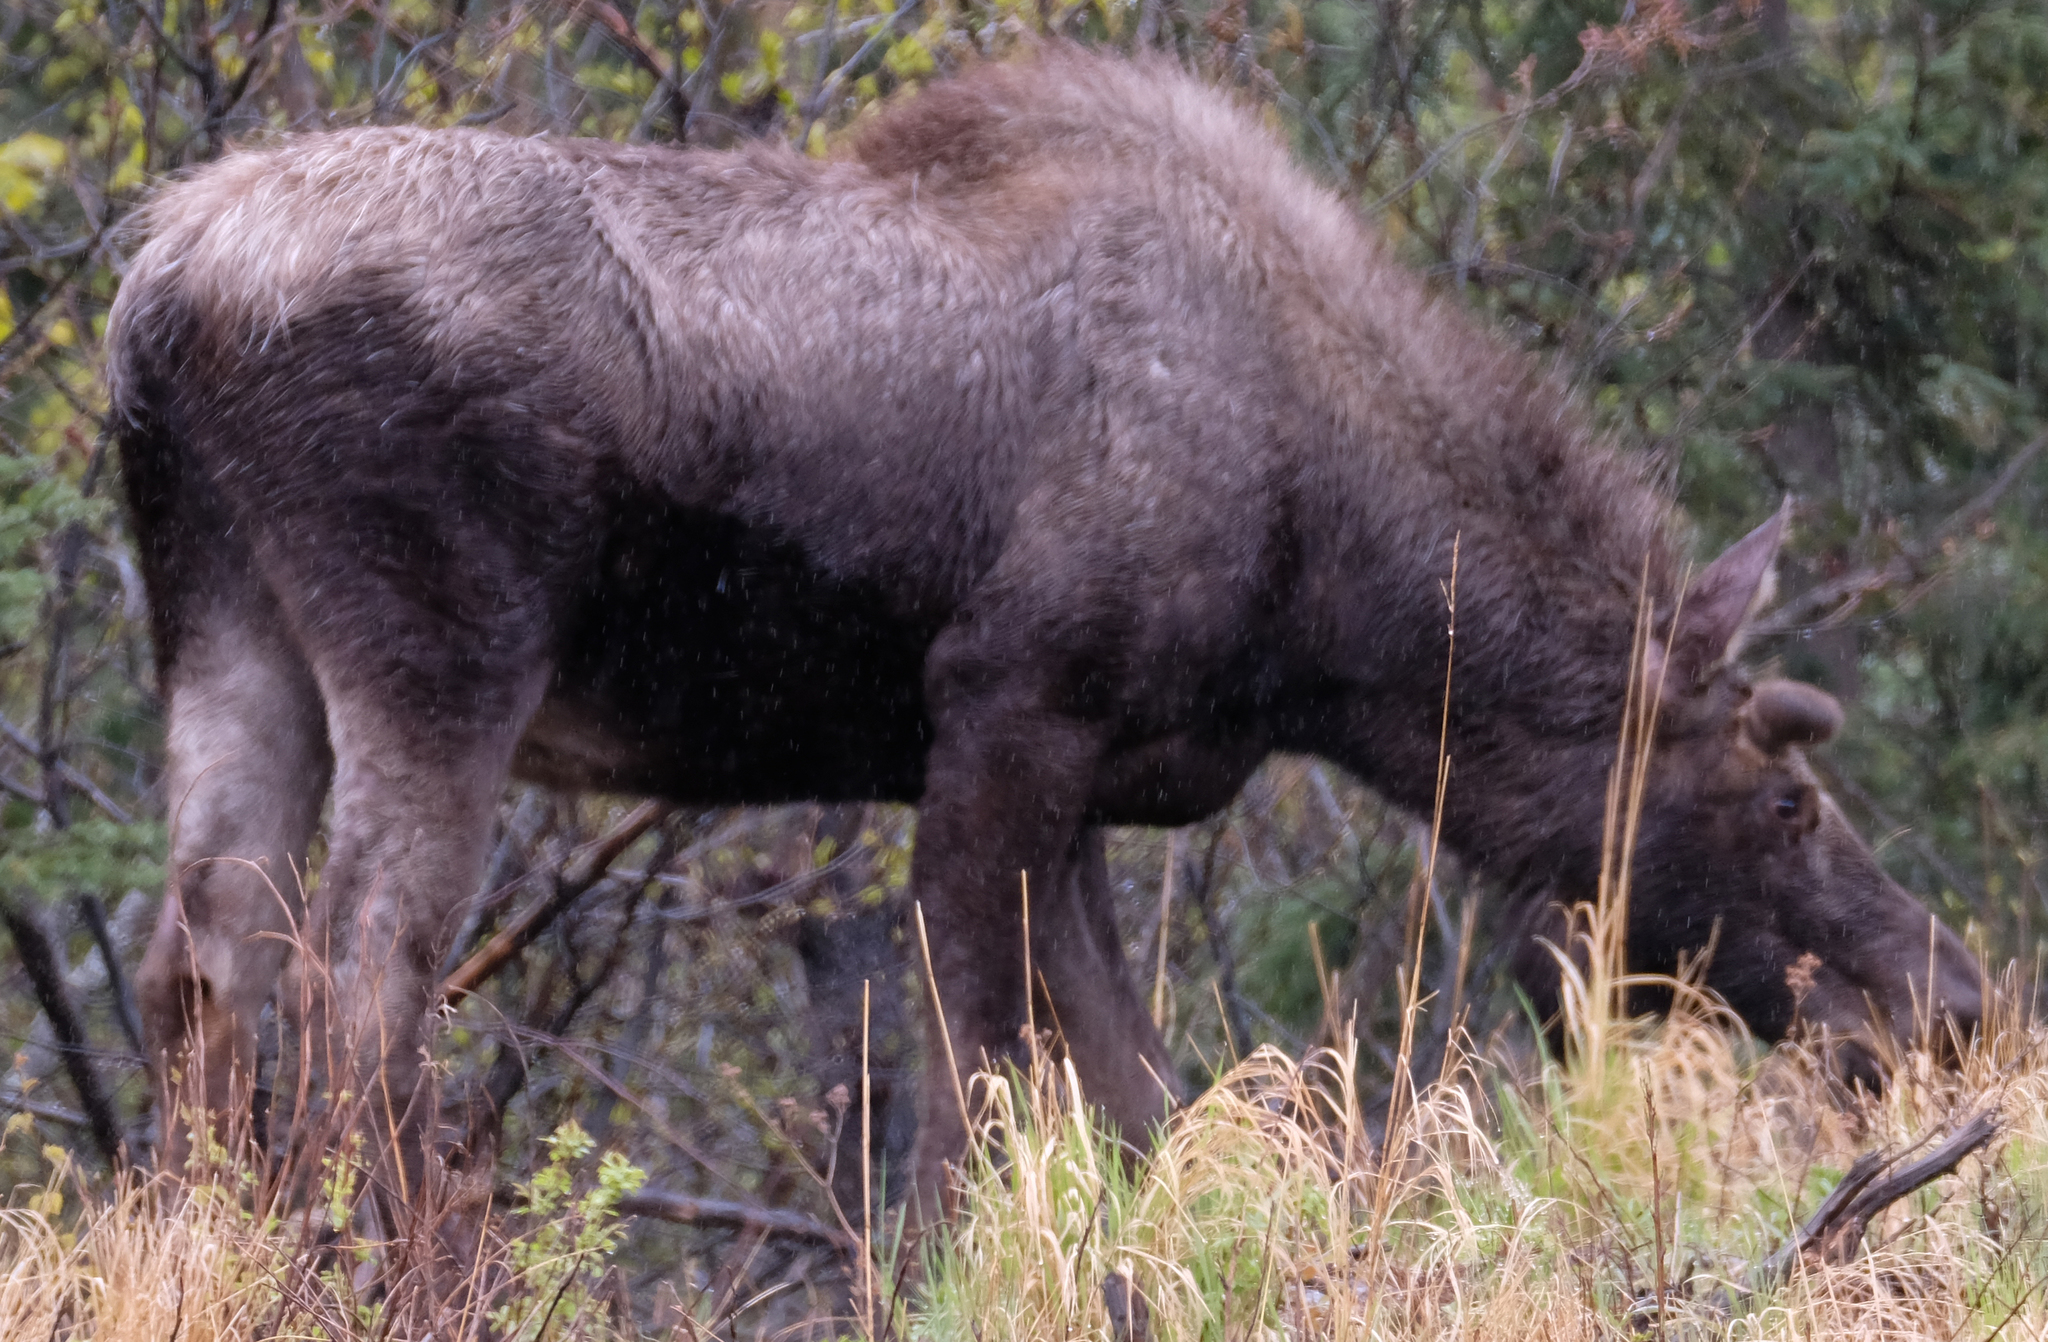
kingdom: Animalia
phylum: Chordata
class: Mammalia
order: Artiodactyla
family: Cervidae
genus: Alces
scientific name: Alces alces
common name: Moose
